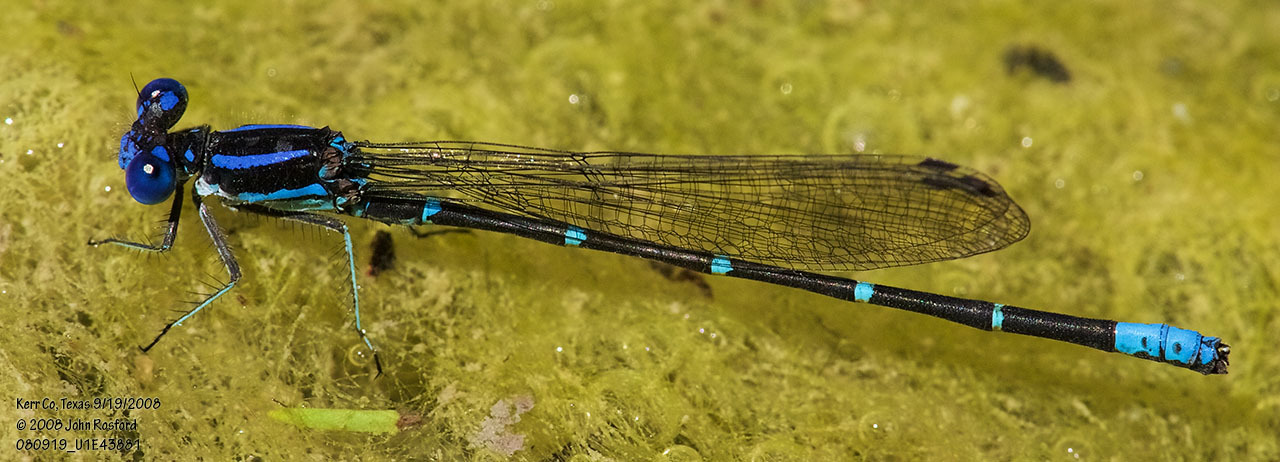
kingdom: Animalia
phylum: Arthropoda
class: Insecta
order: Odonata
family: Coenagrionidae
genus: Argia
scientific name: Argia sedula
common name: Blue-ringed dancer
